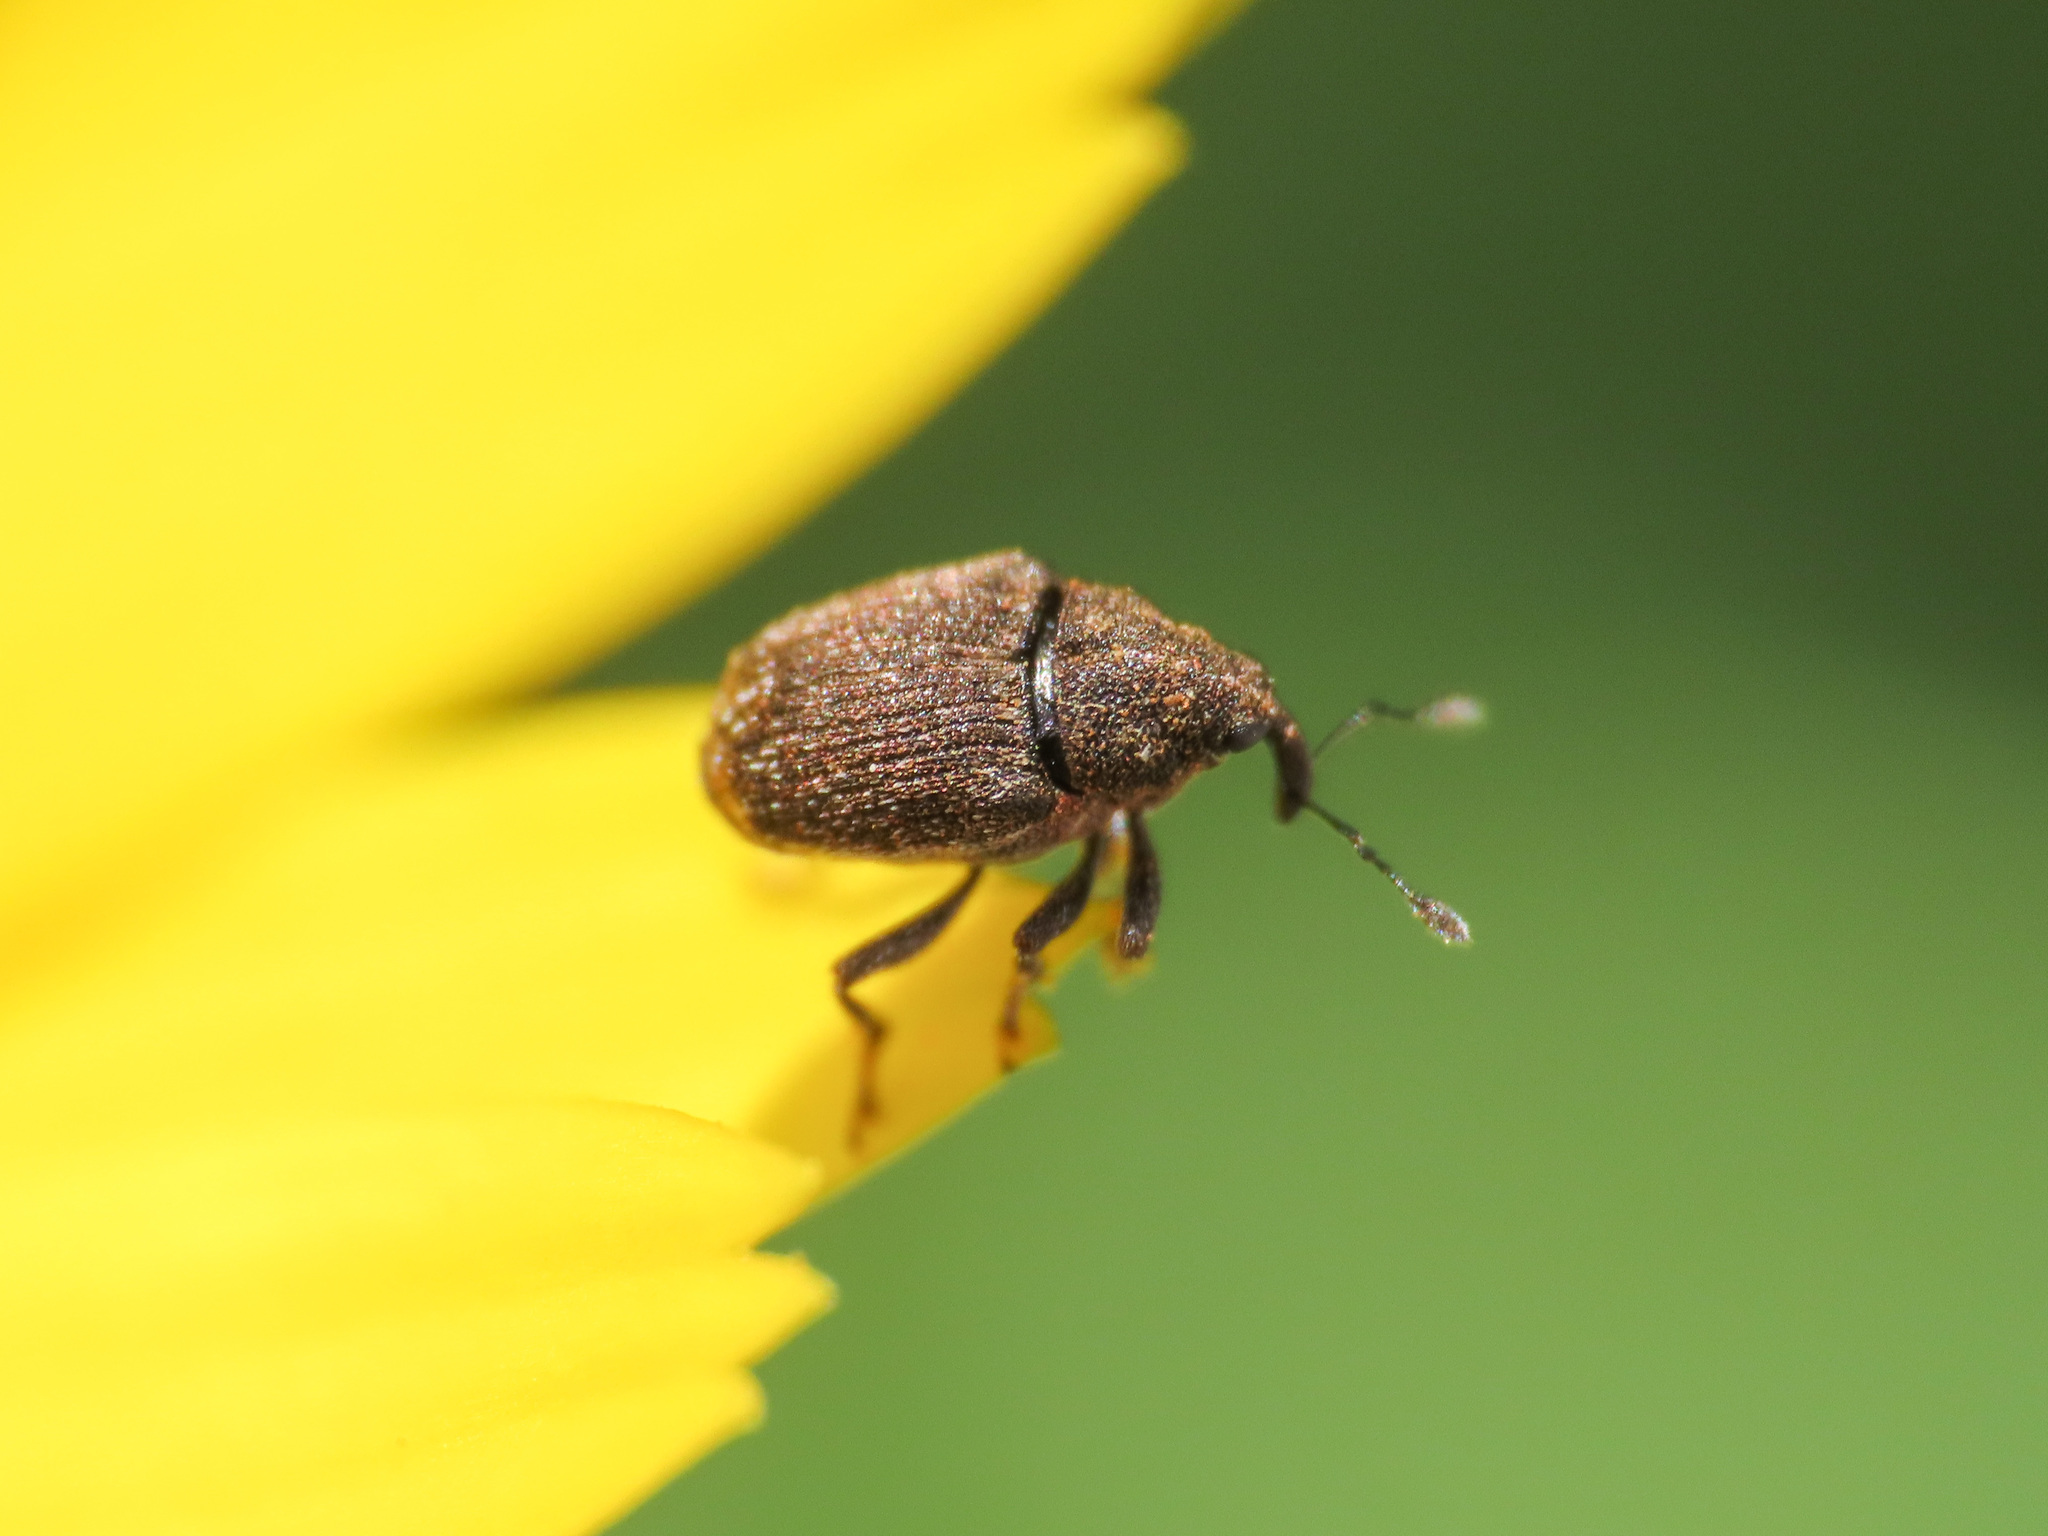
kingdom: Animalia
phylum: Arthropoda
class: Insecta
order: Coleoptera
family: Curculionidae
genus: Sirocalodes
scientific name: Sirocalodes mixtus
